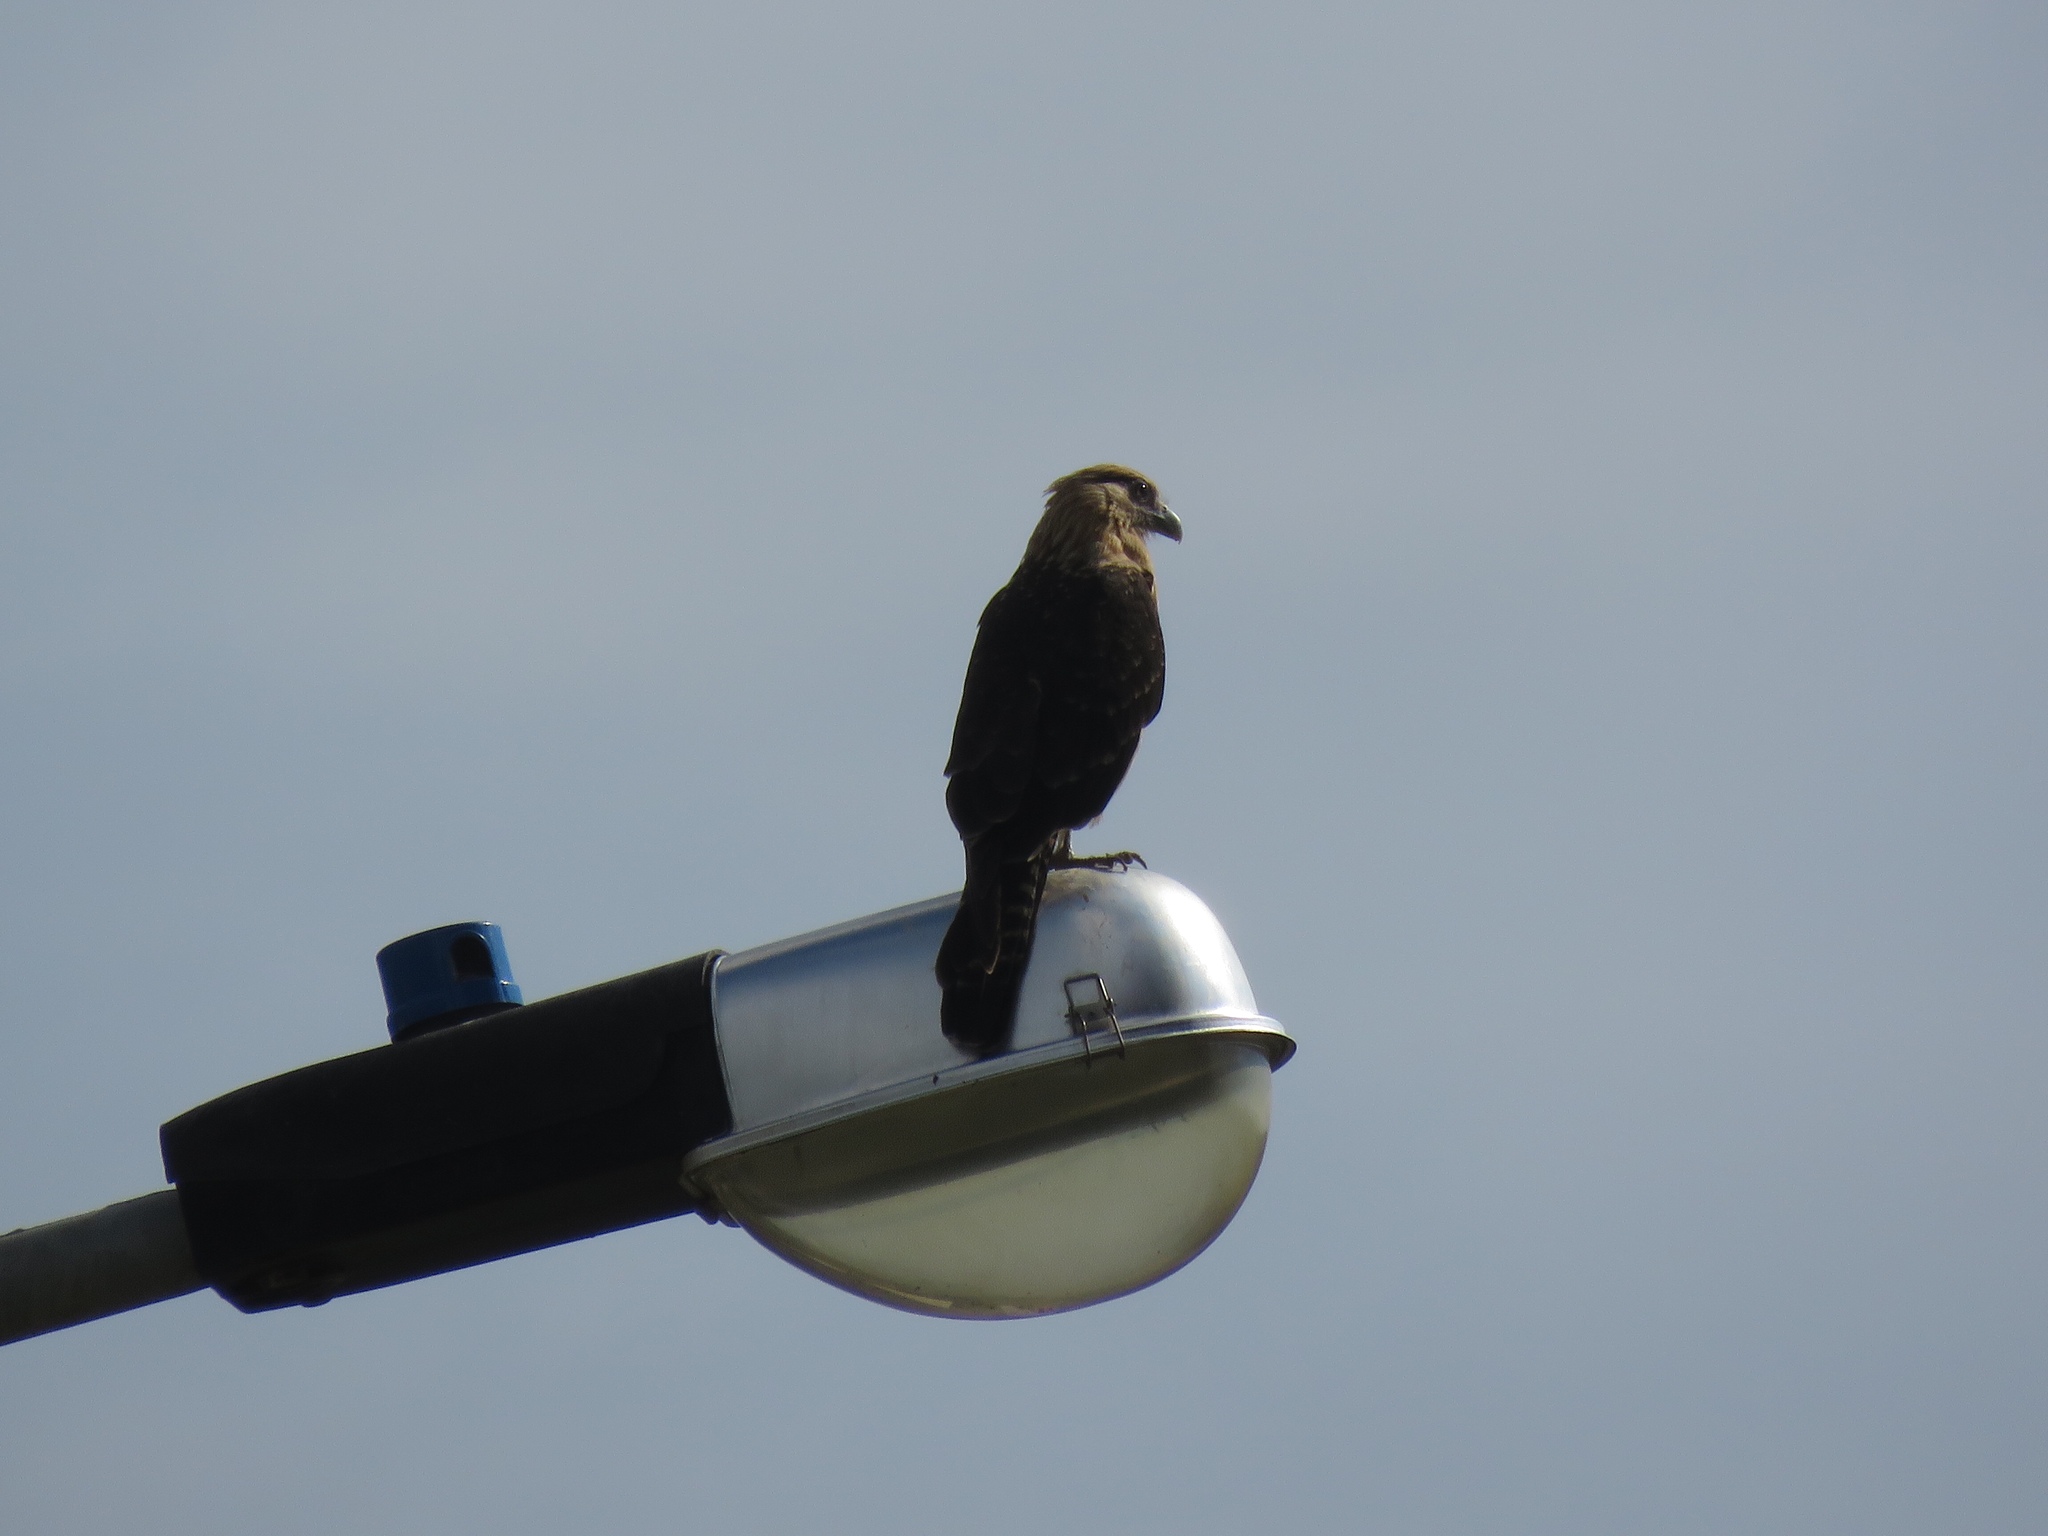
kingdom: Animalia
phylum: Chordata
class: Aves
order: Falconiformes
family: Falconidae
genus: Daptrius
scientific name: Daptrius
